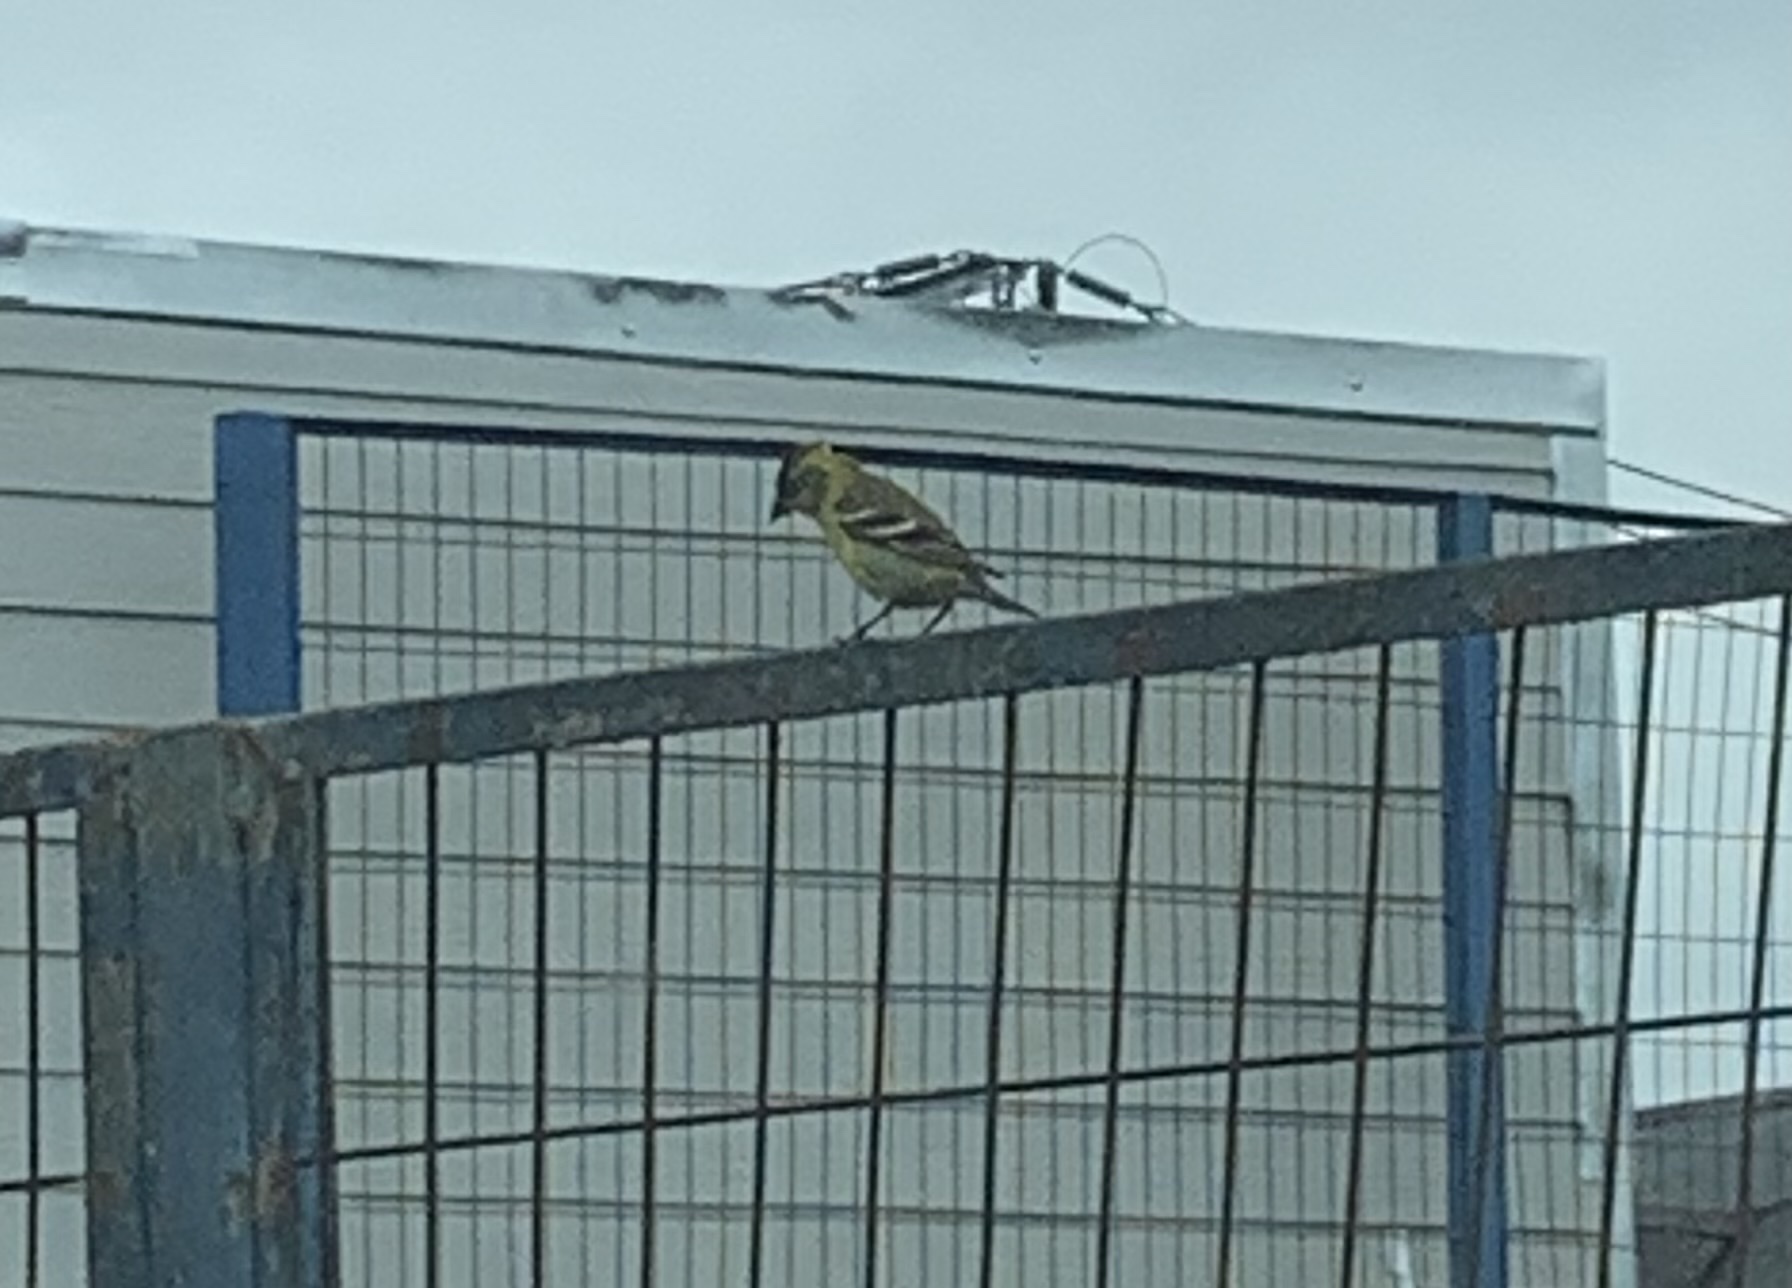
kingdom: Animalia
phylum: Chordata
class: Aves
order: Passeriformes
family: Fringillidae
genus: Spinus
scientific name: Spinus barbatus
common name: Black-chinned siskin
